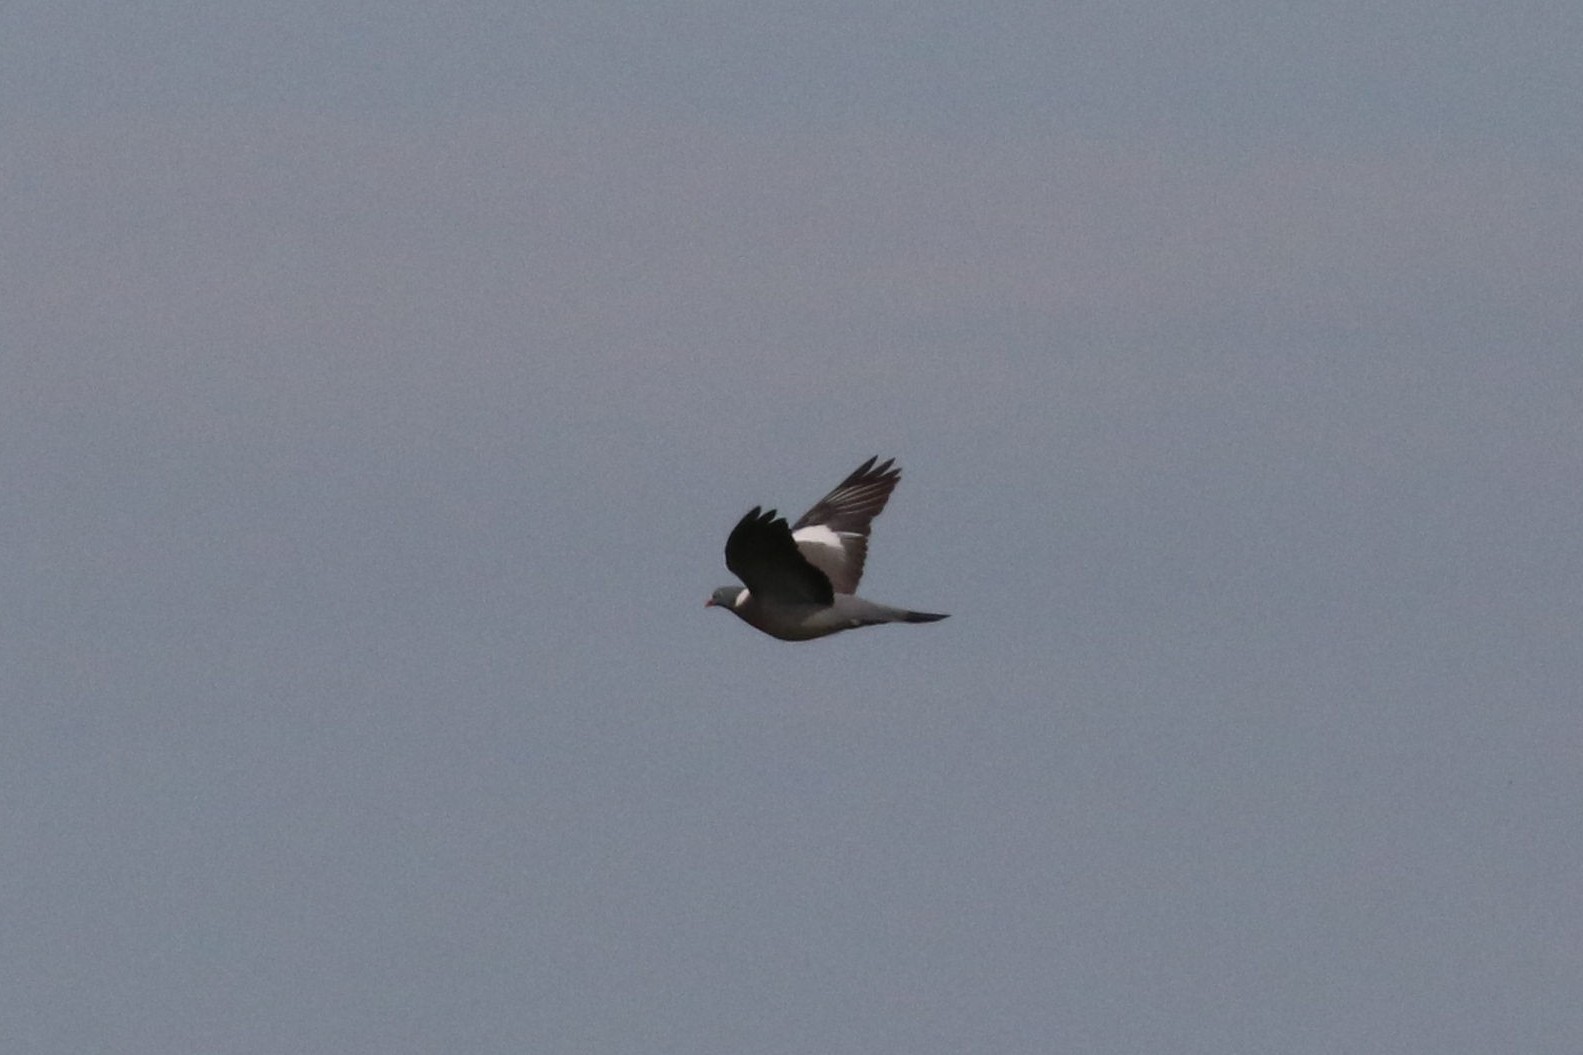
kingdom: Animalia
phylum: Chordata
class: Aves
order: Columbiformes
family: Columbidae
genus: Columba
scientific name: Columba palumbus
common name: Common wood pigeon
